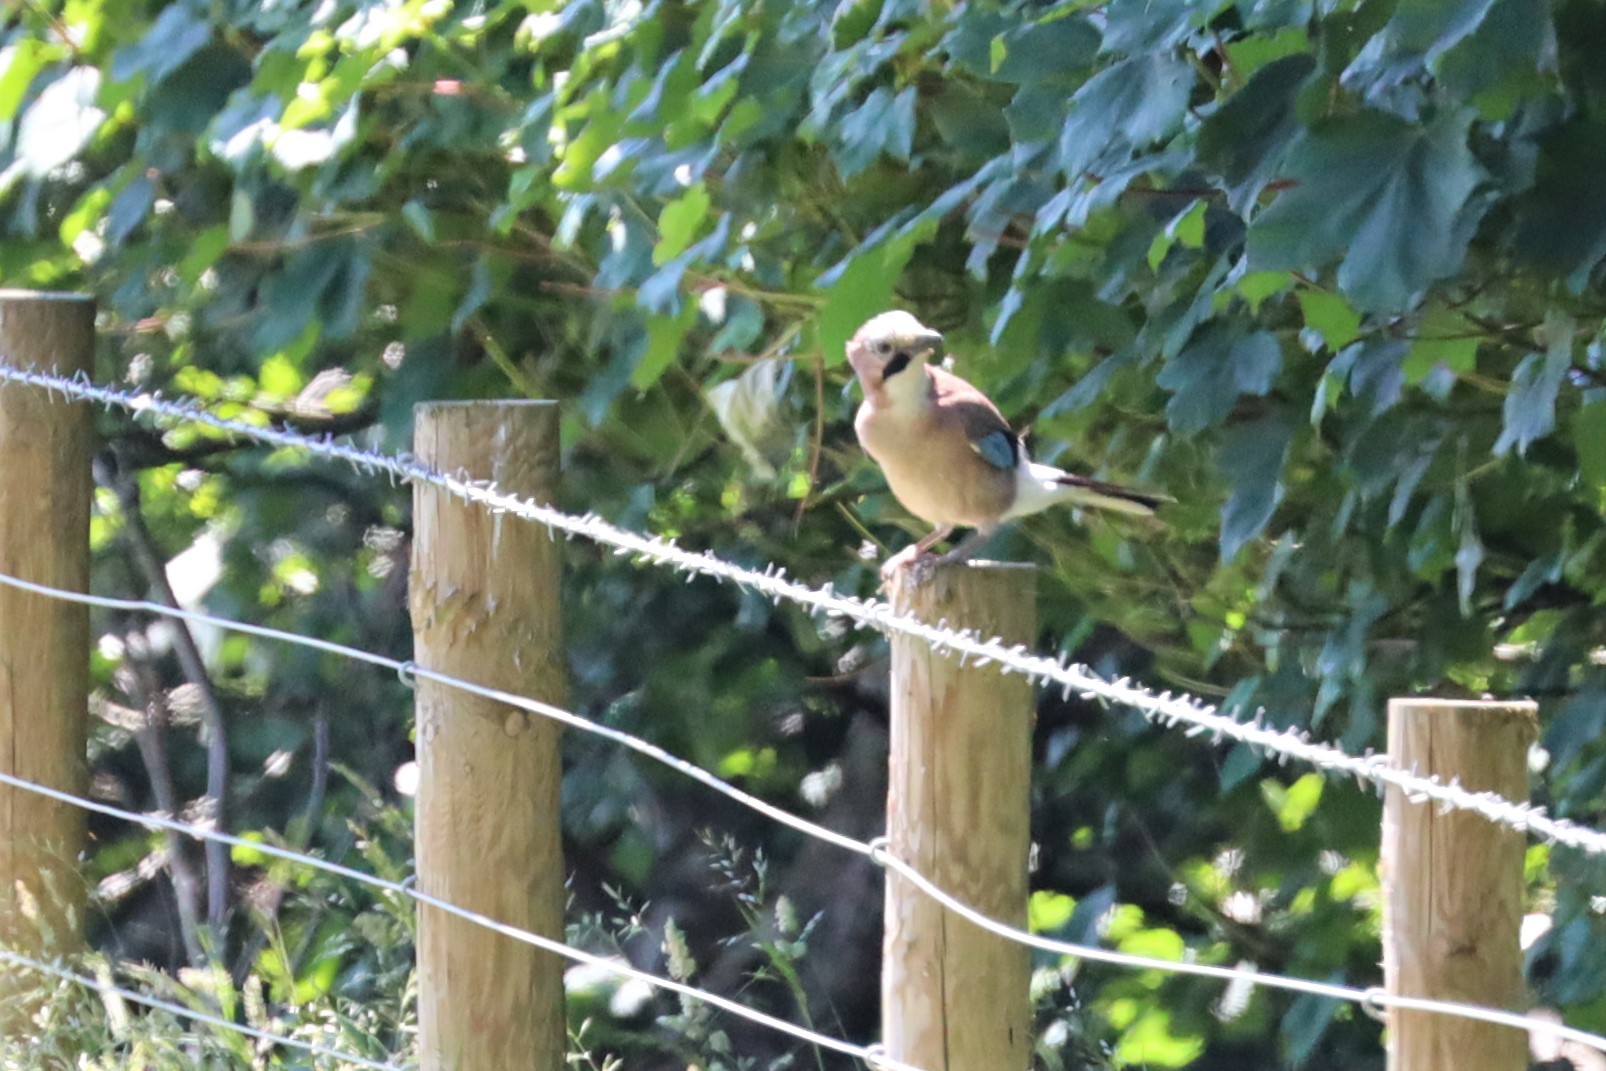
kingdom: Animalia
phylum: Chordata
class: Aves
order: Passeriformes
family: Corvidae
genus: Garrulus
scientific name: Garrulus glandarius
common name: Eurasian jay
